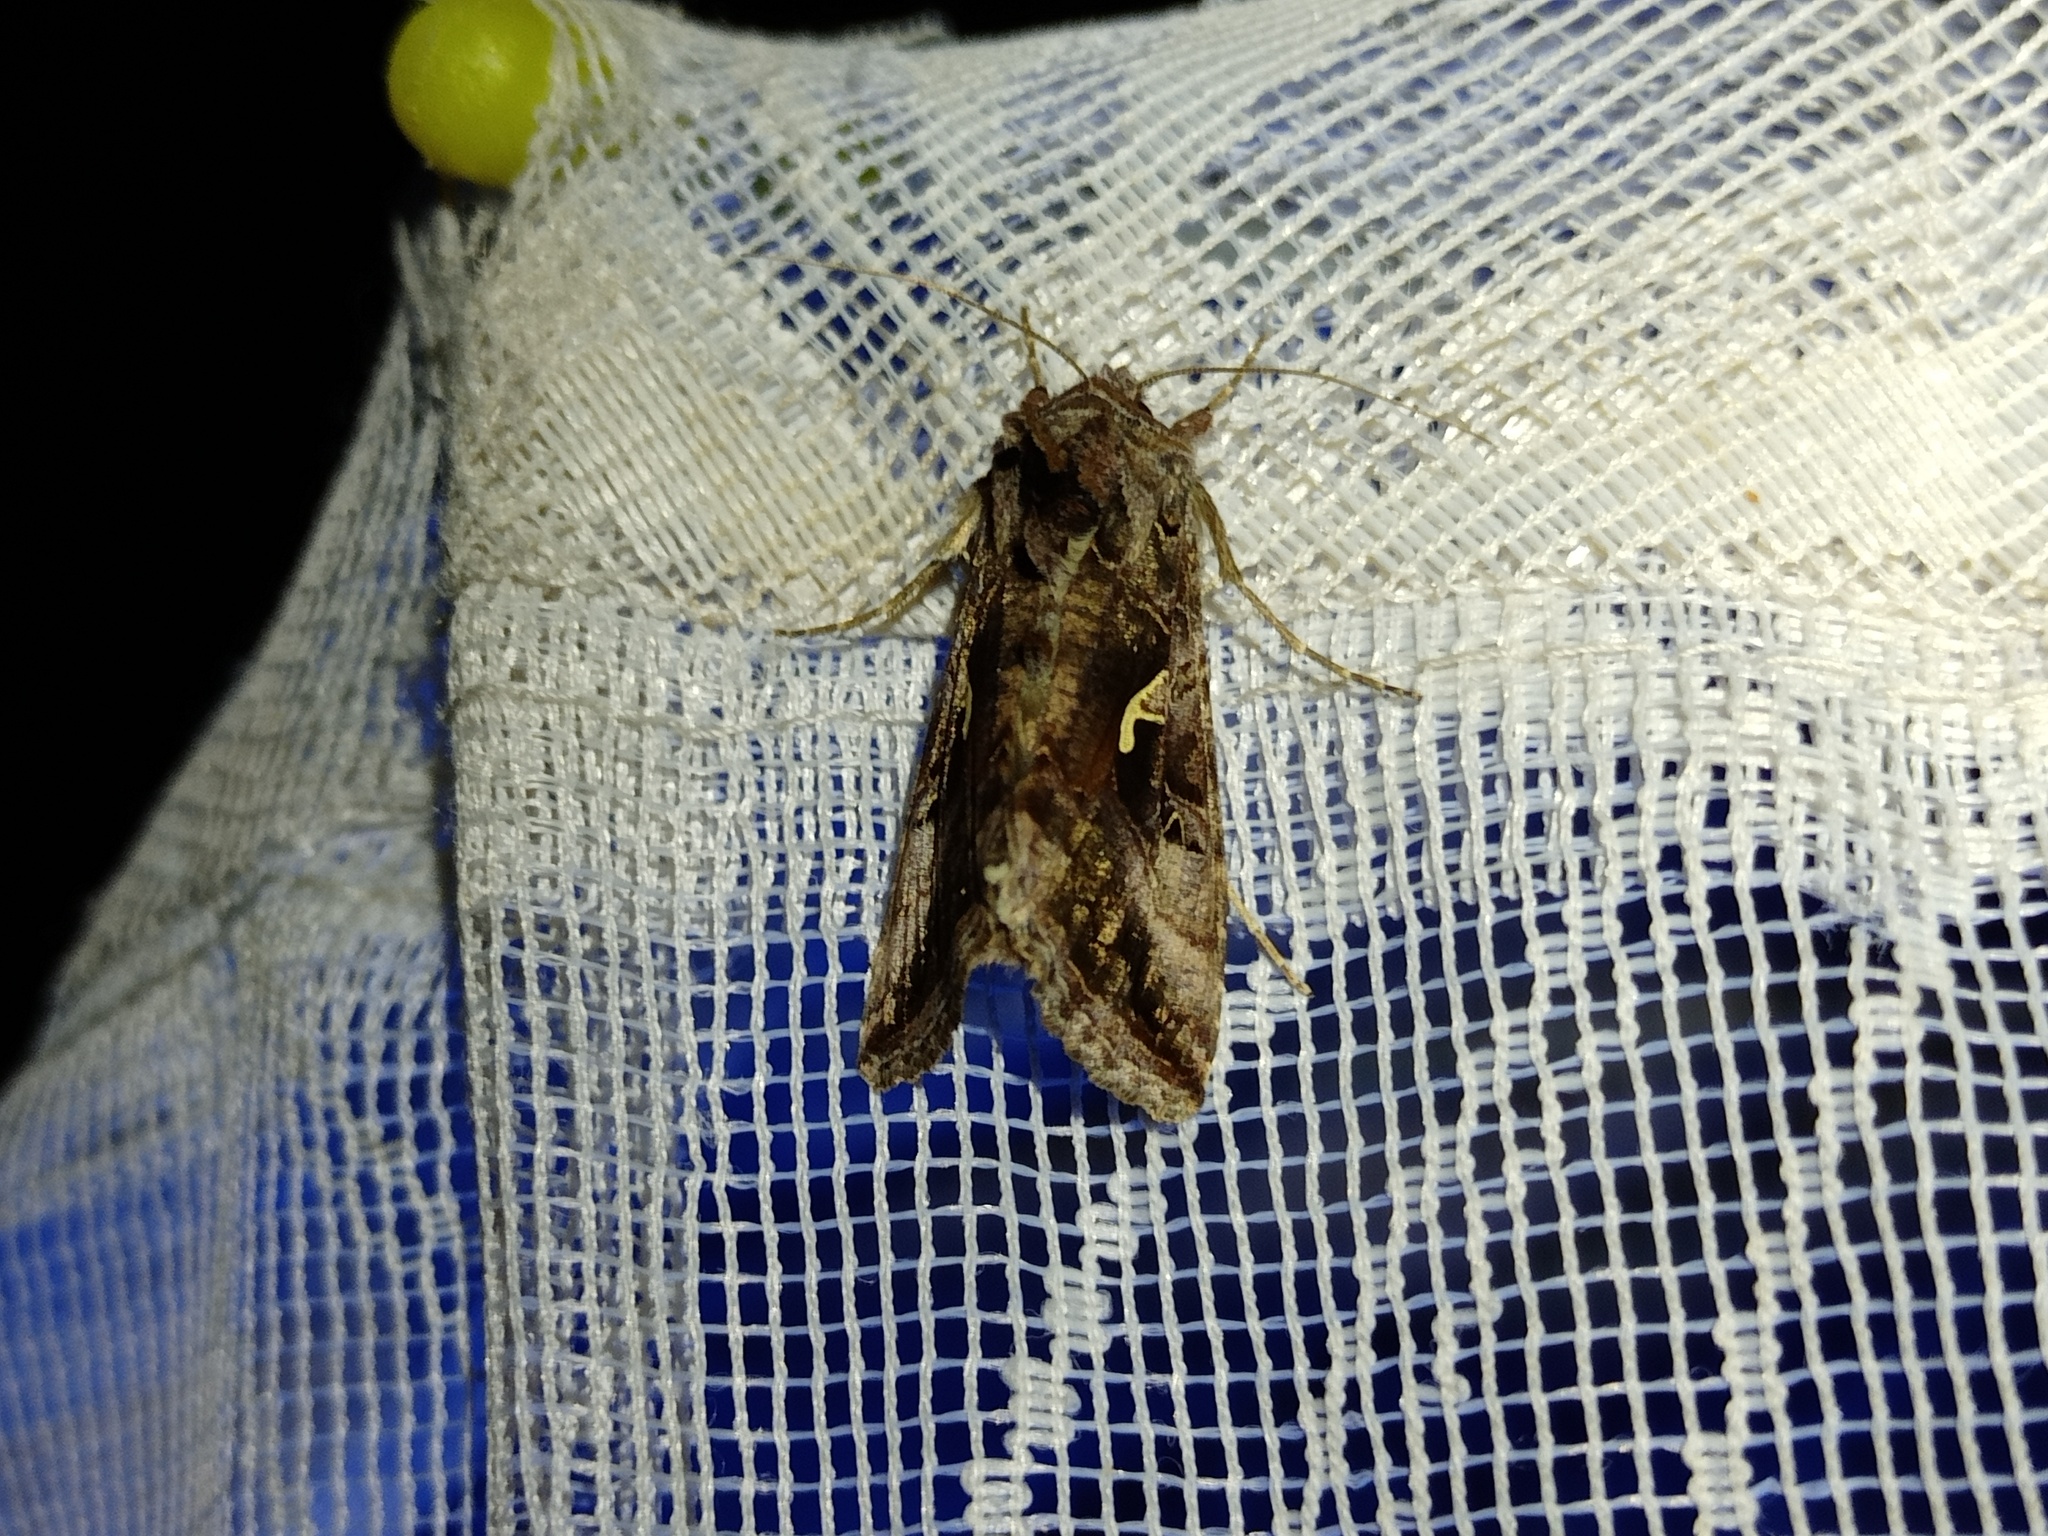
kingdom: Animalia
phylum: Arthropoda
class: Insecta
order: Lepidoptera
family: Noctuidae
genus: Autographa
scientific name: Autographa gamma
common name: Silver y
